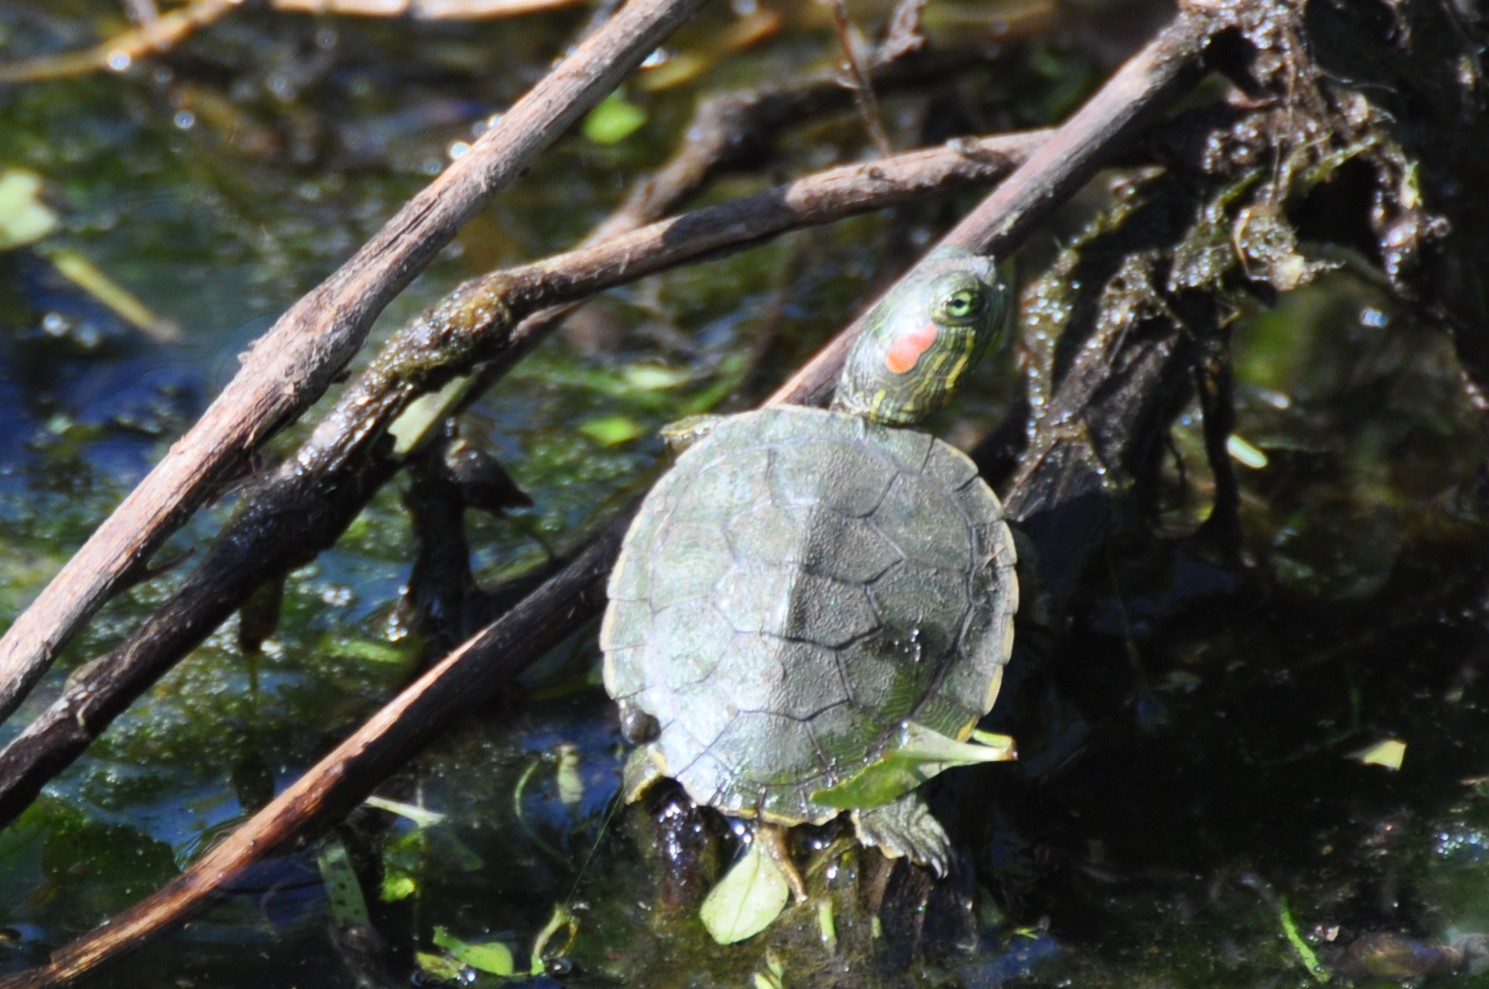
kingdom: Animalia
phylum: Chordata
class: Testudines
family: Emydidae
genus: Trachemys
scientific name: Trachemys scripta
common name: Slider
